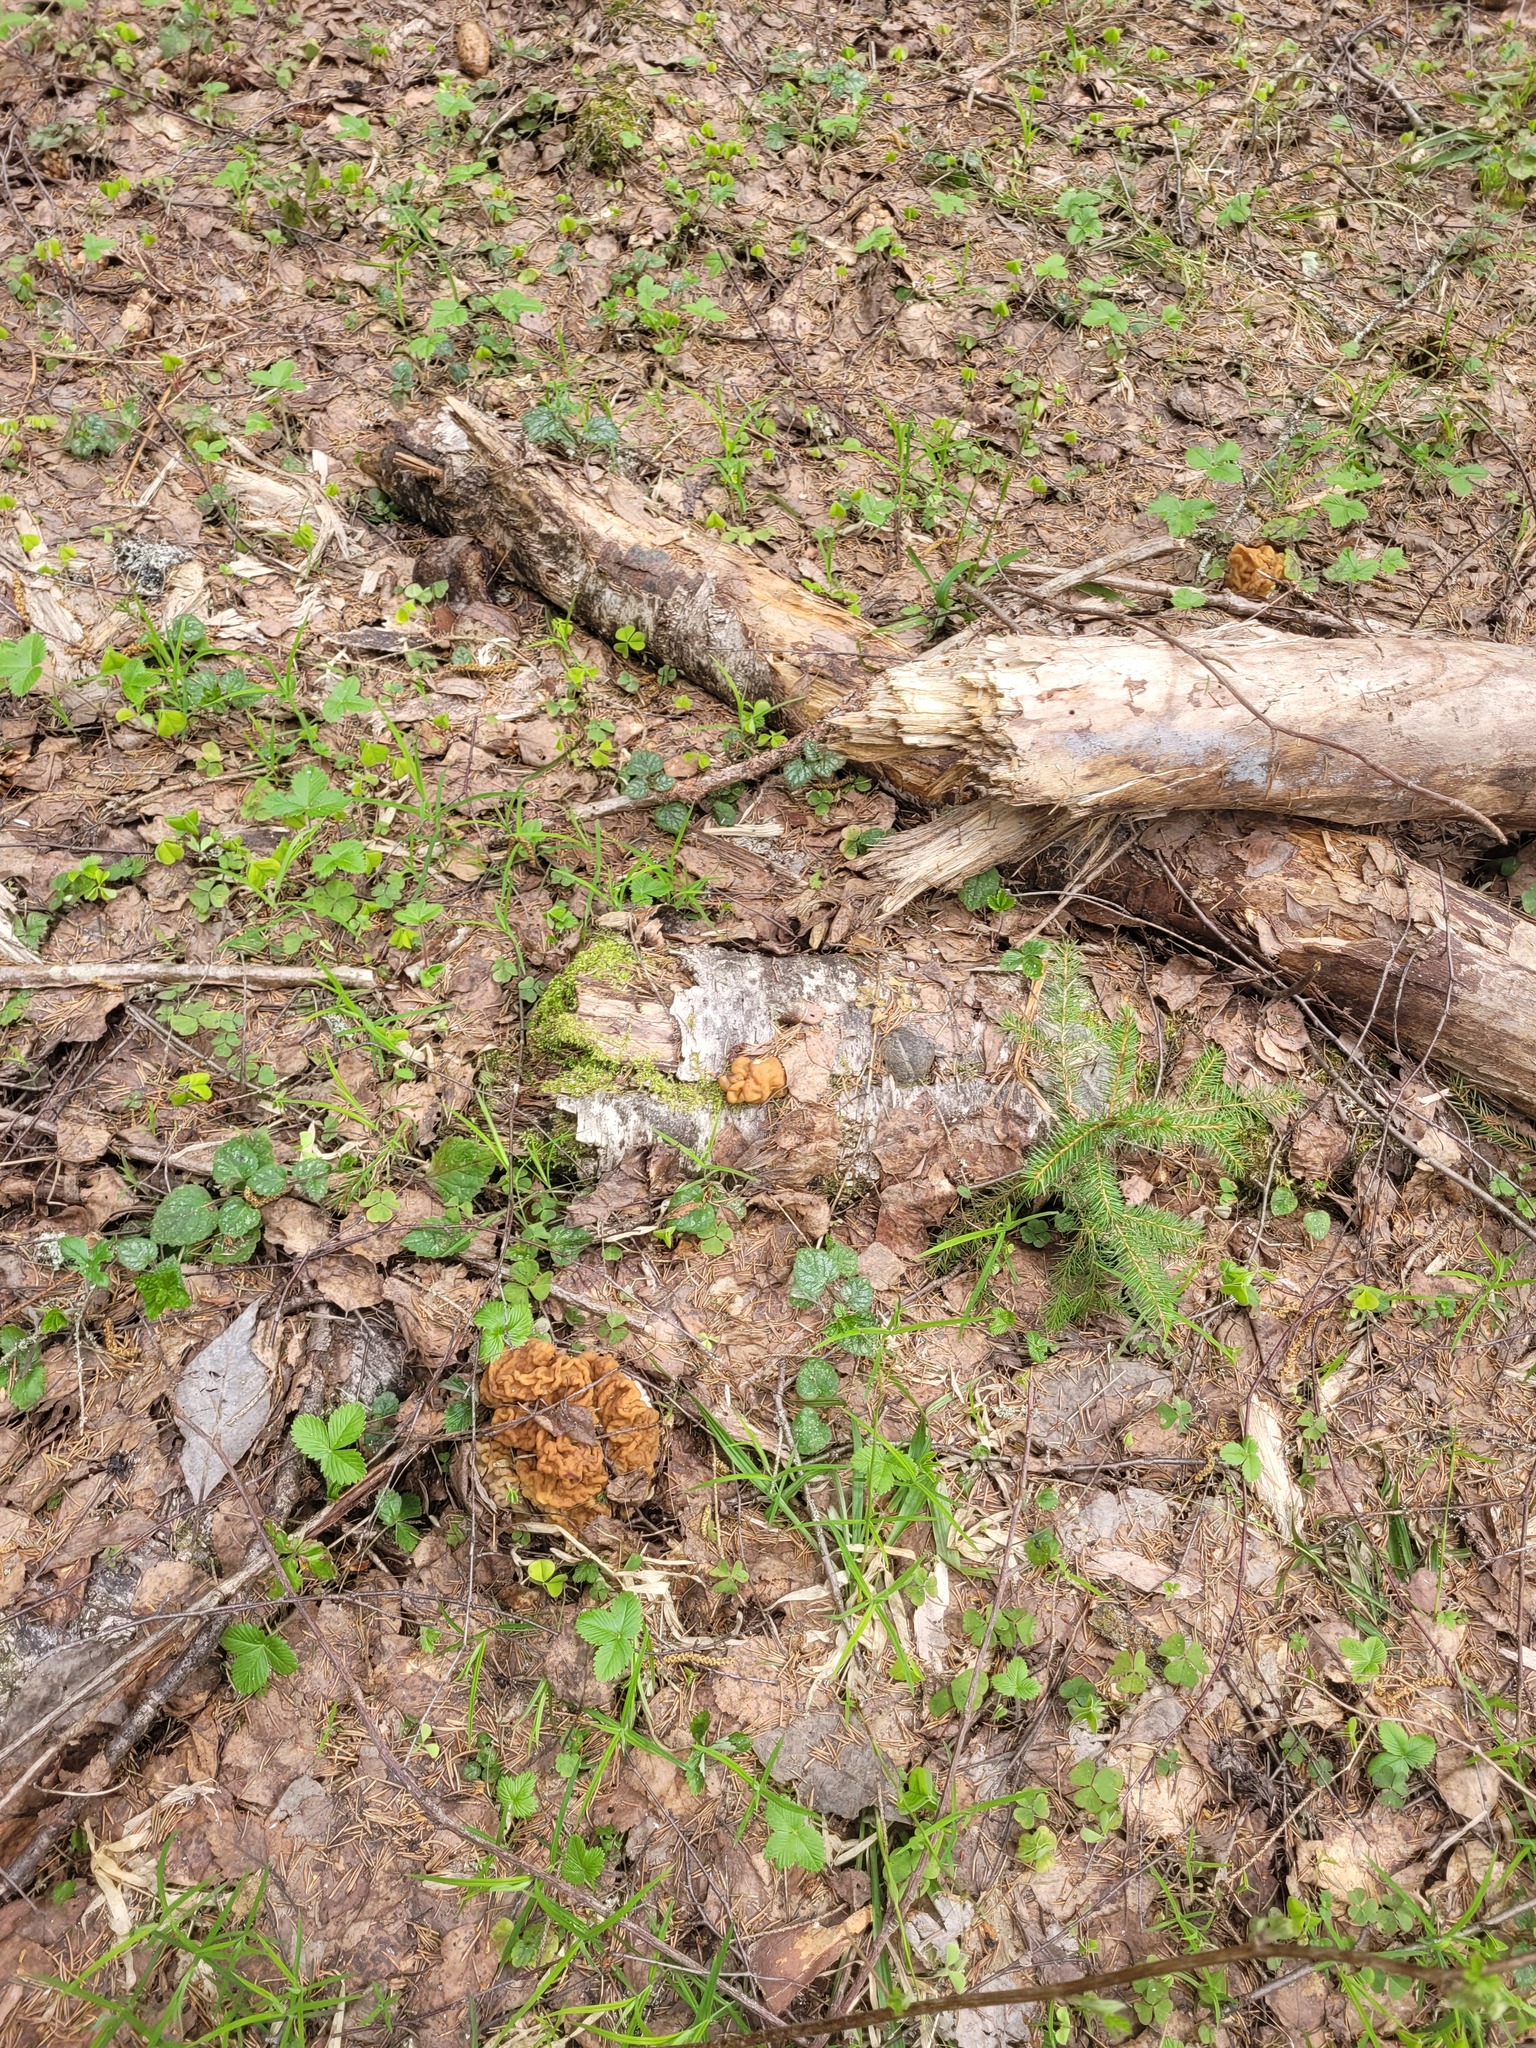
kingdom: Fungi
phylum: Ascomycota
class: Pezizomycetes
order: Pezizales
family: Discinaceae
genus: Gyromitra
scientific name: Gyromitra gigas
